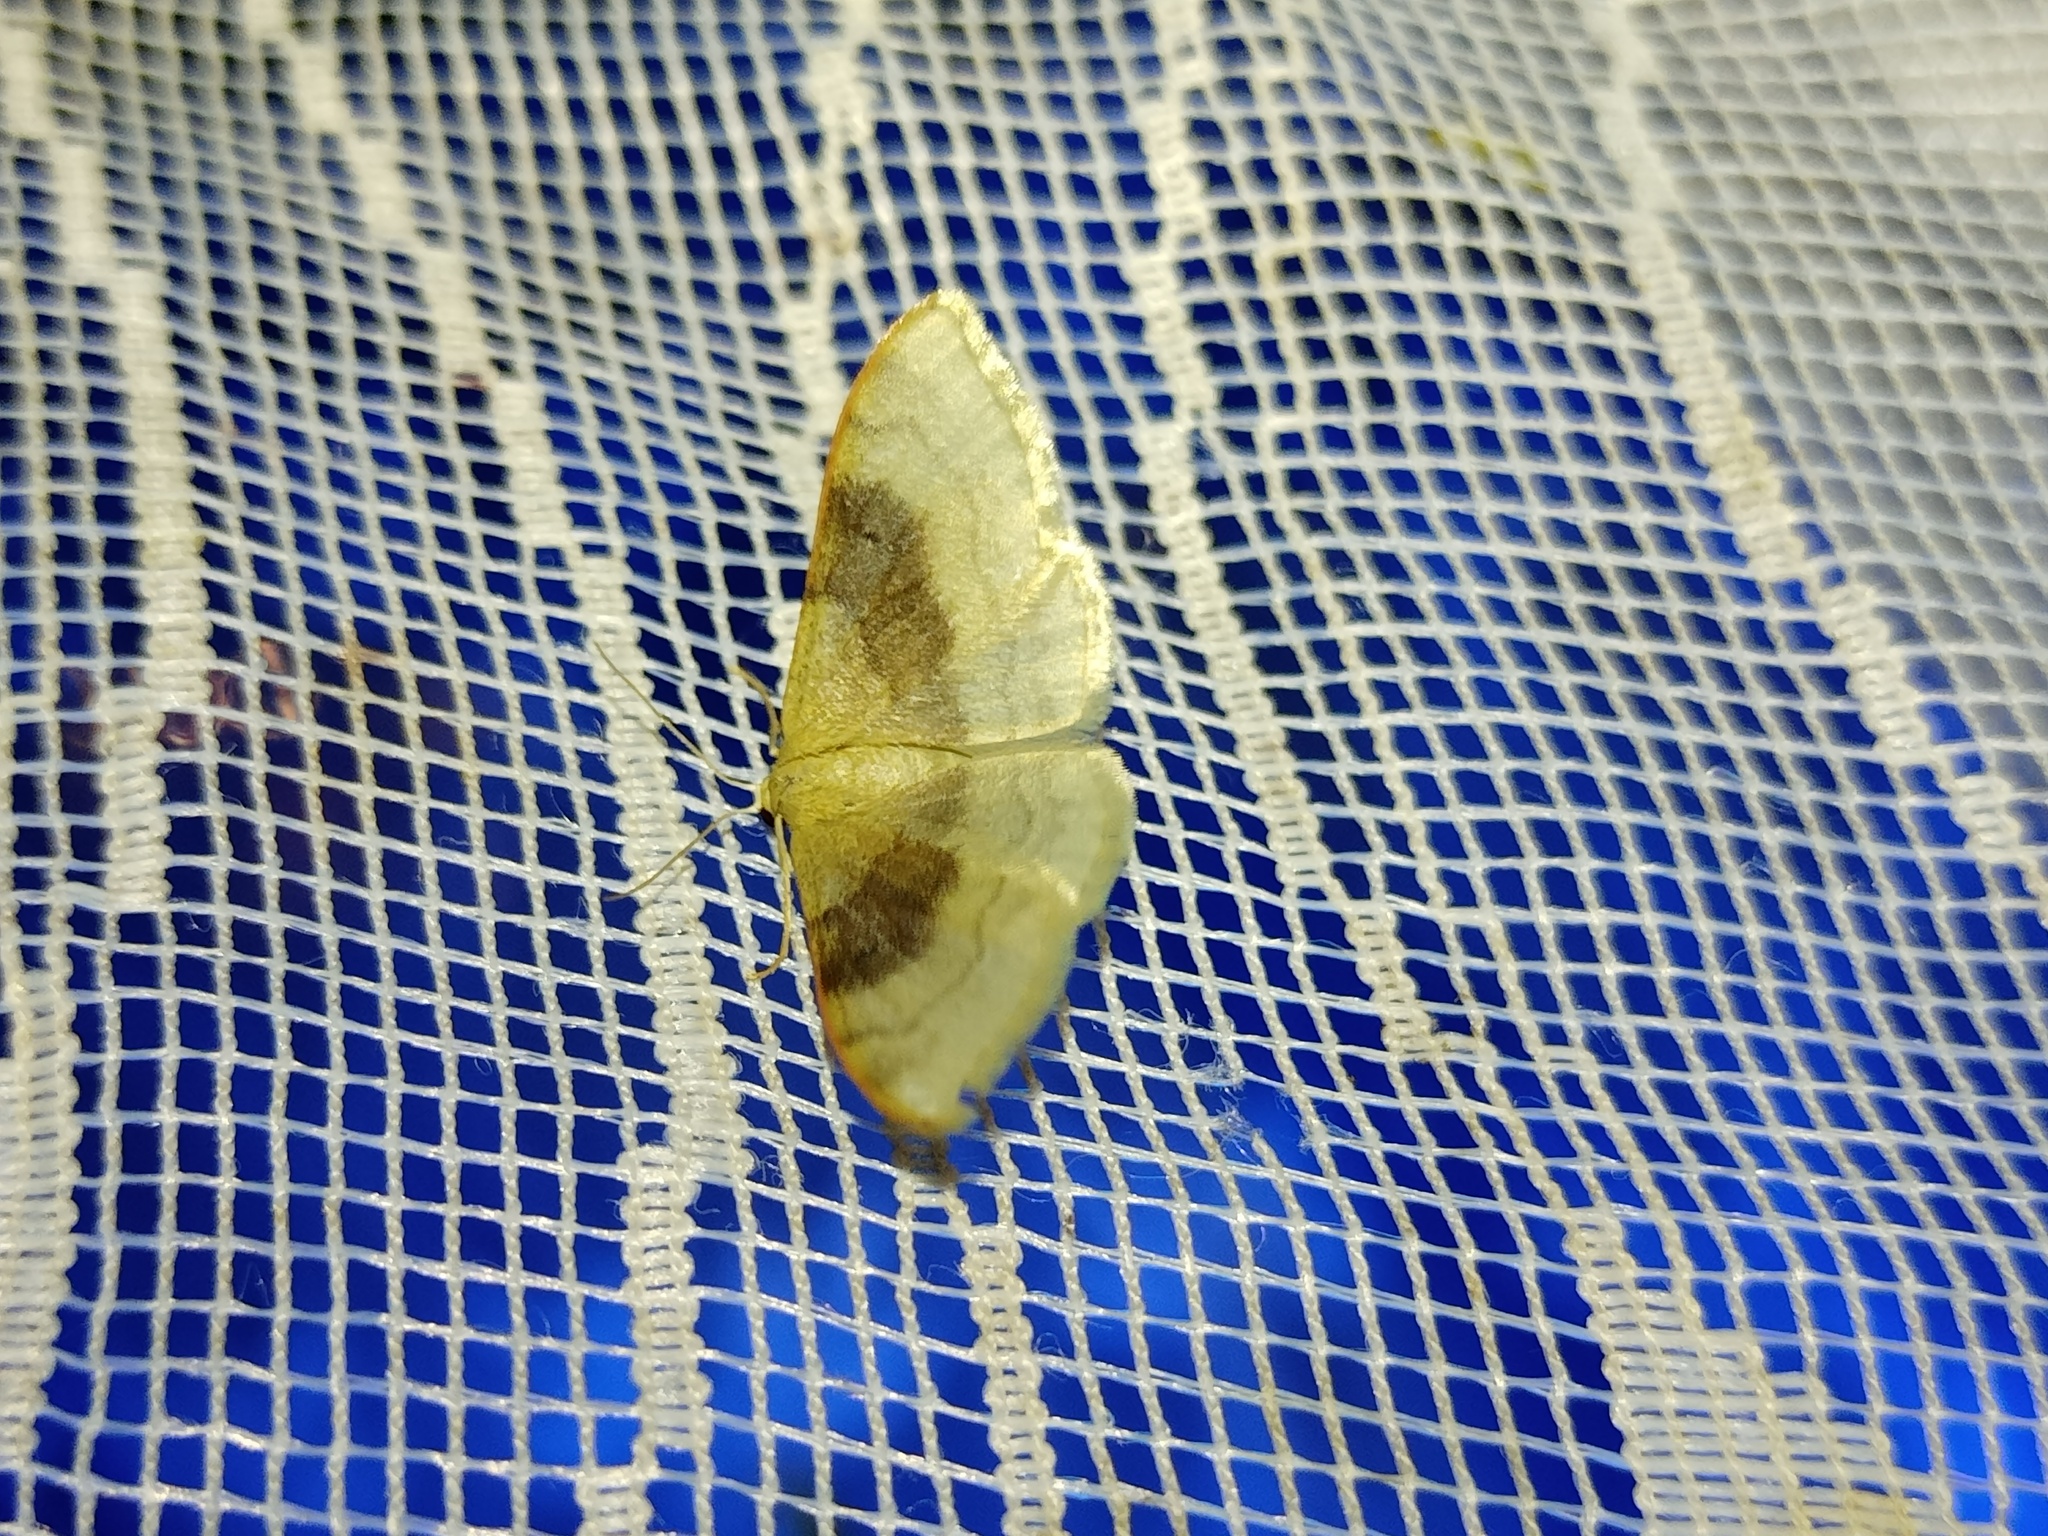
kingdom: Animalia
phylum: Arthropoda
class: Insecta
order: Lepidoptera
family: Geometridae
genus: Idaea
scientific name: Idaea degeneraria
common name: Portland ribbon wave
